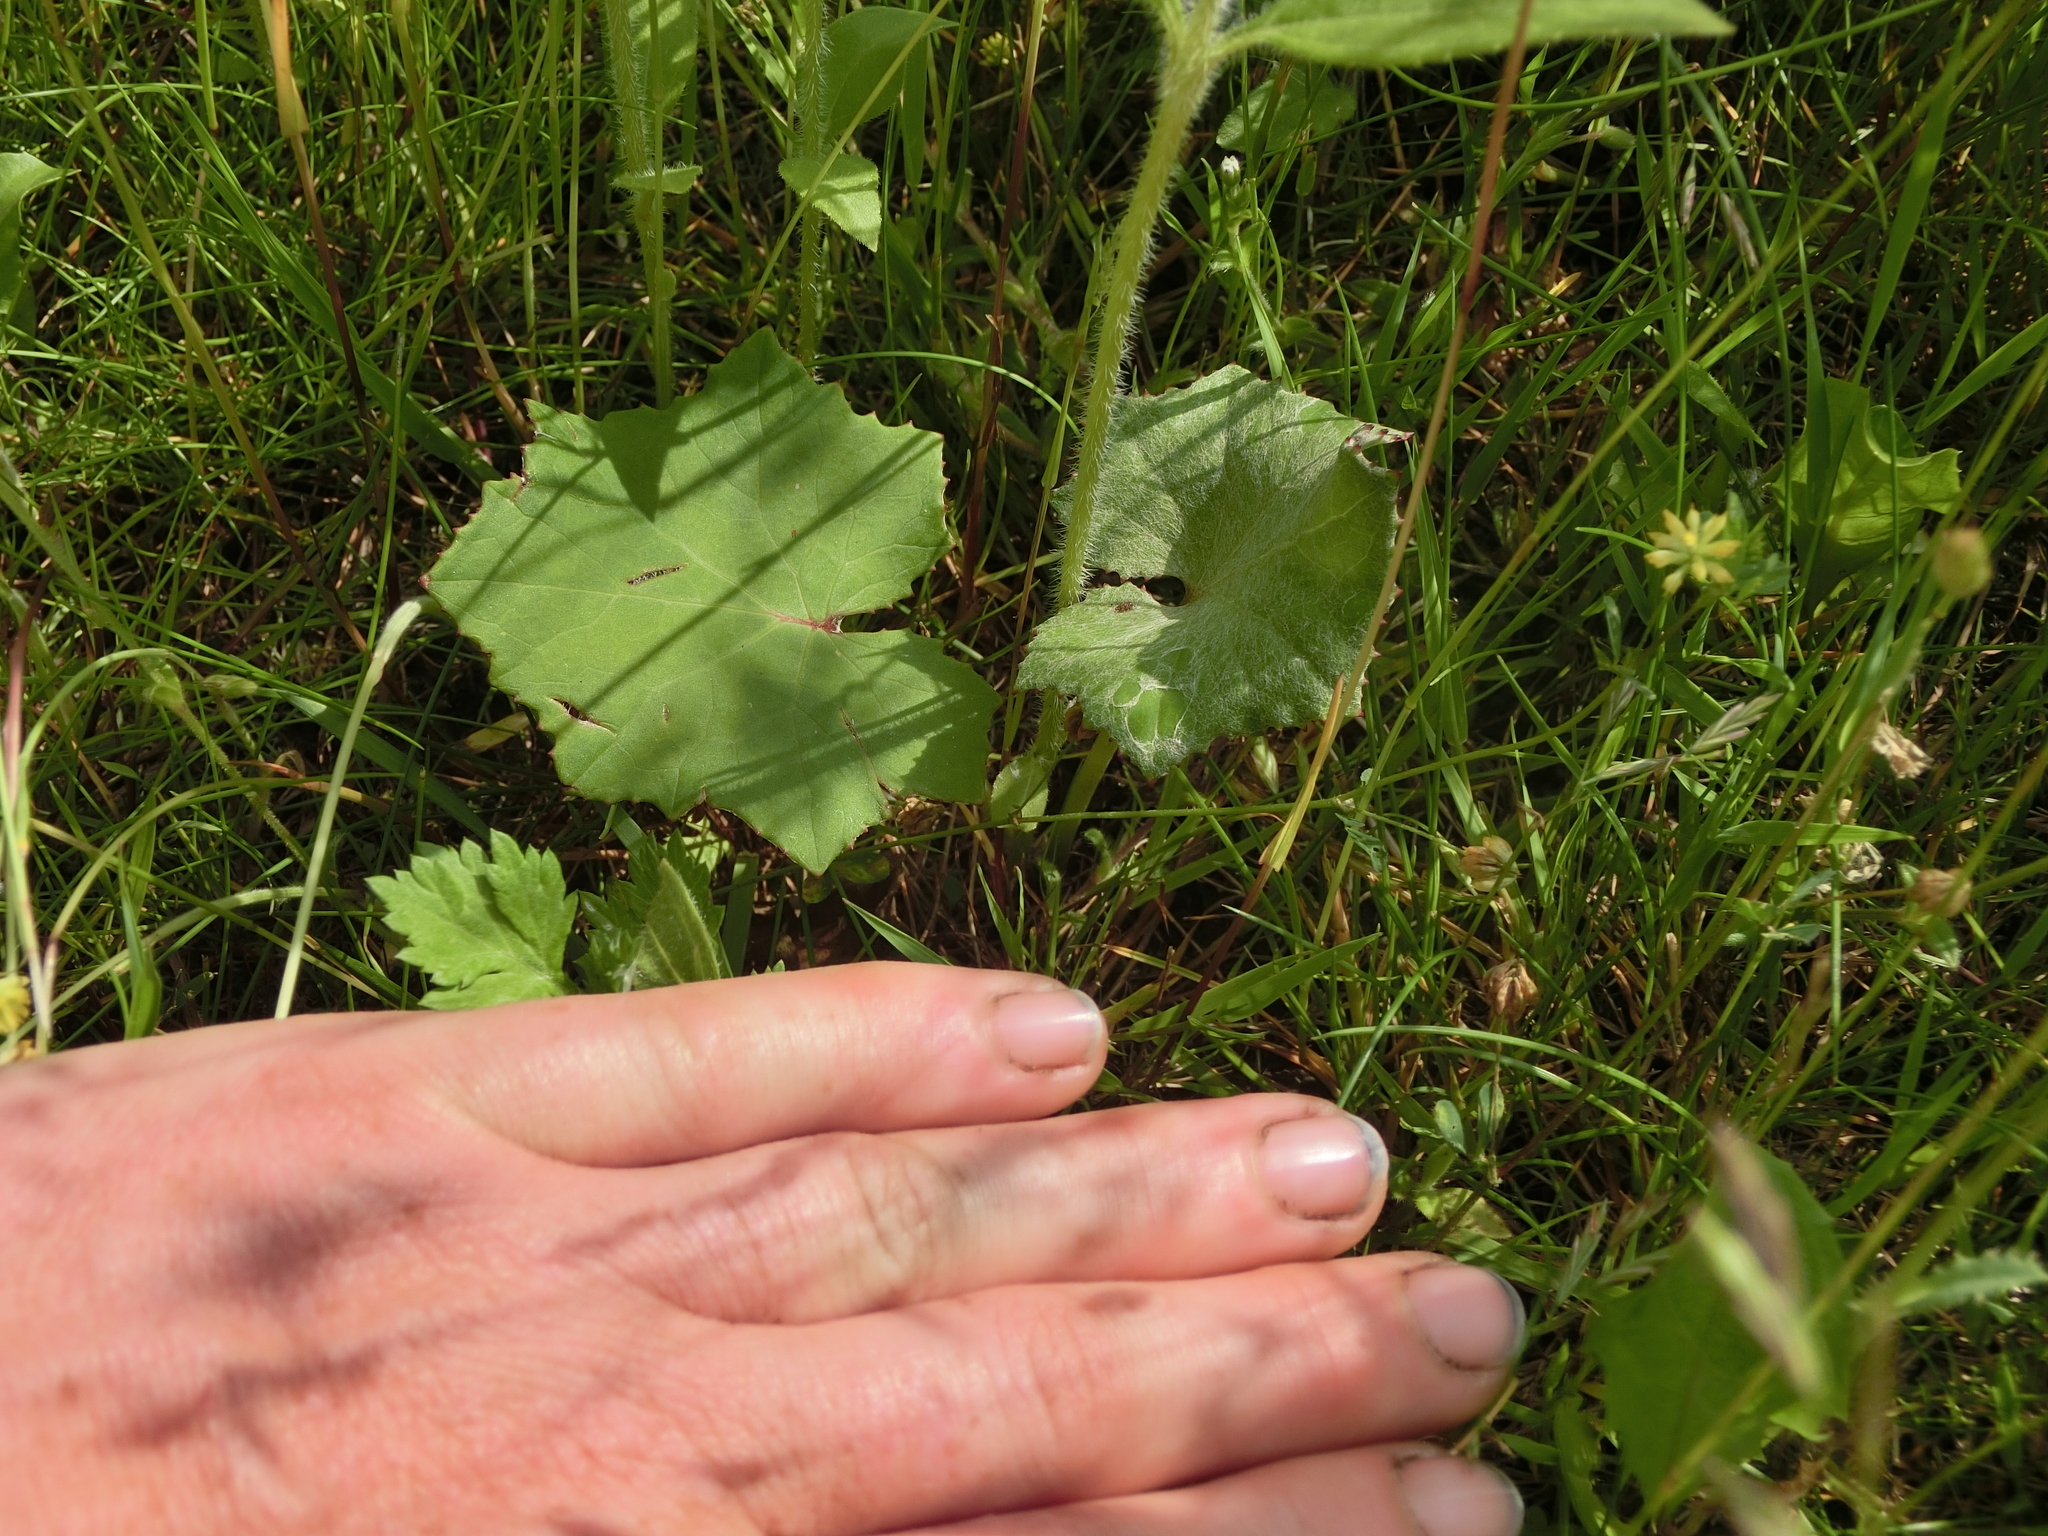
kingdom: Plantae
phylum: Tracheophyta
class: Magnoliopsida
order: Asterales
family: Asteraceae
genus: Tussilago
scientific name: Tussilago farfara
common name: Coltsfoot
